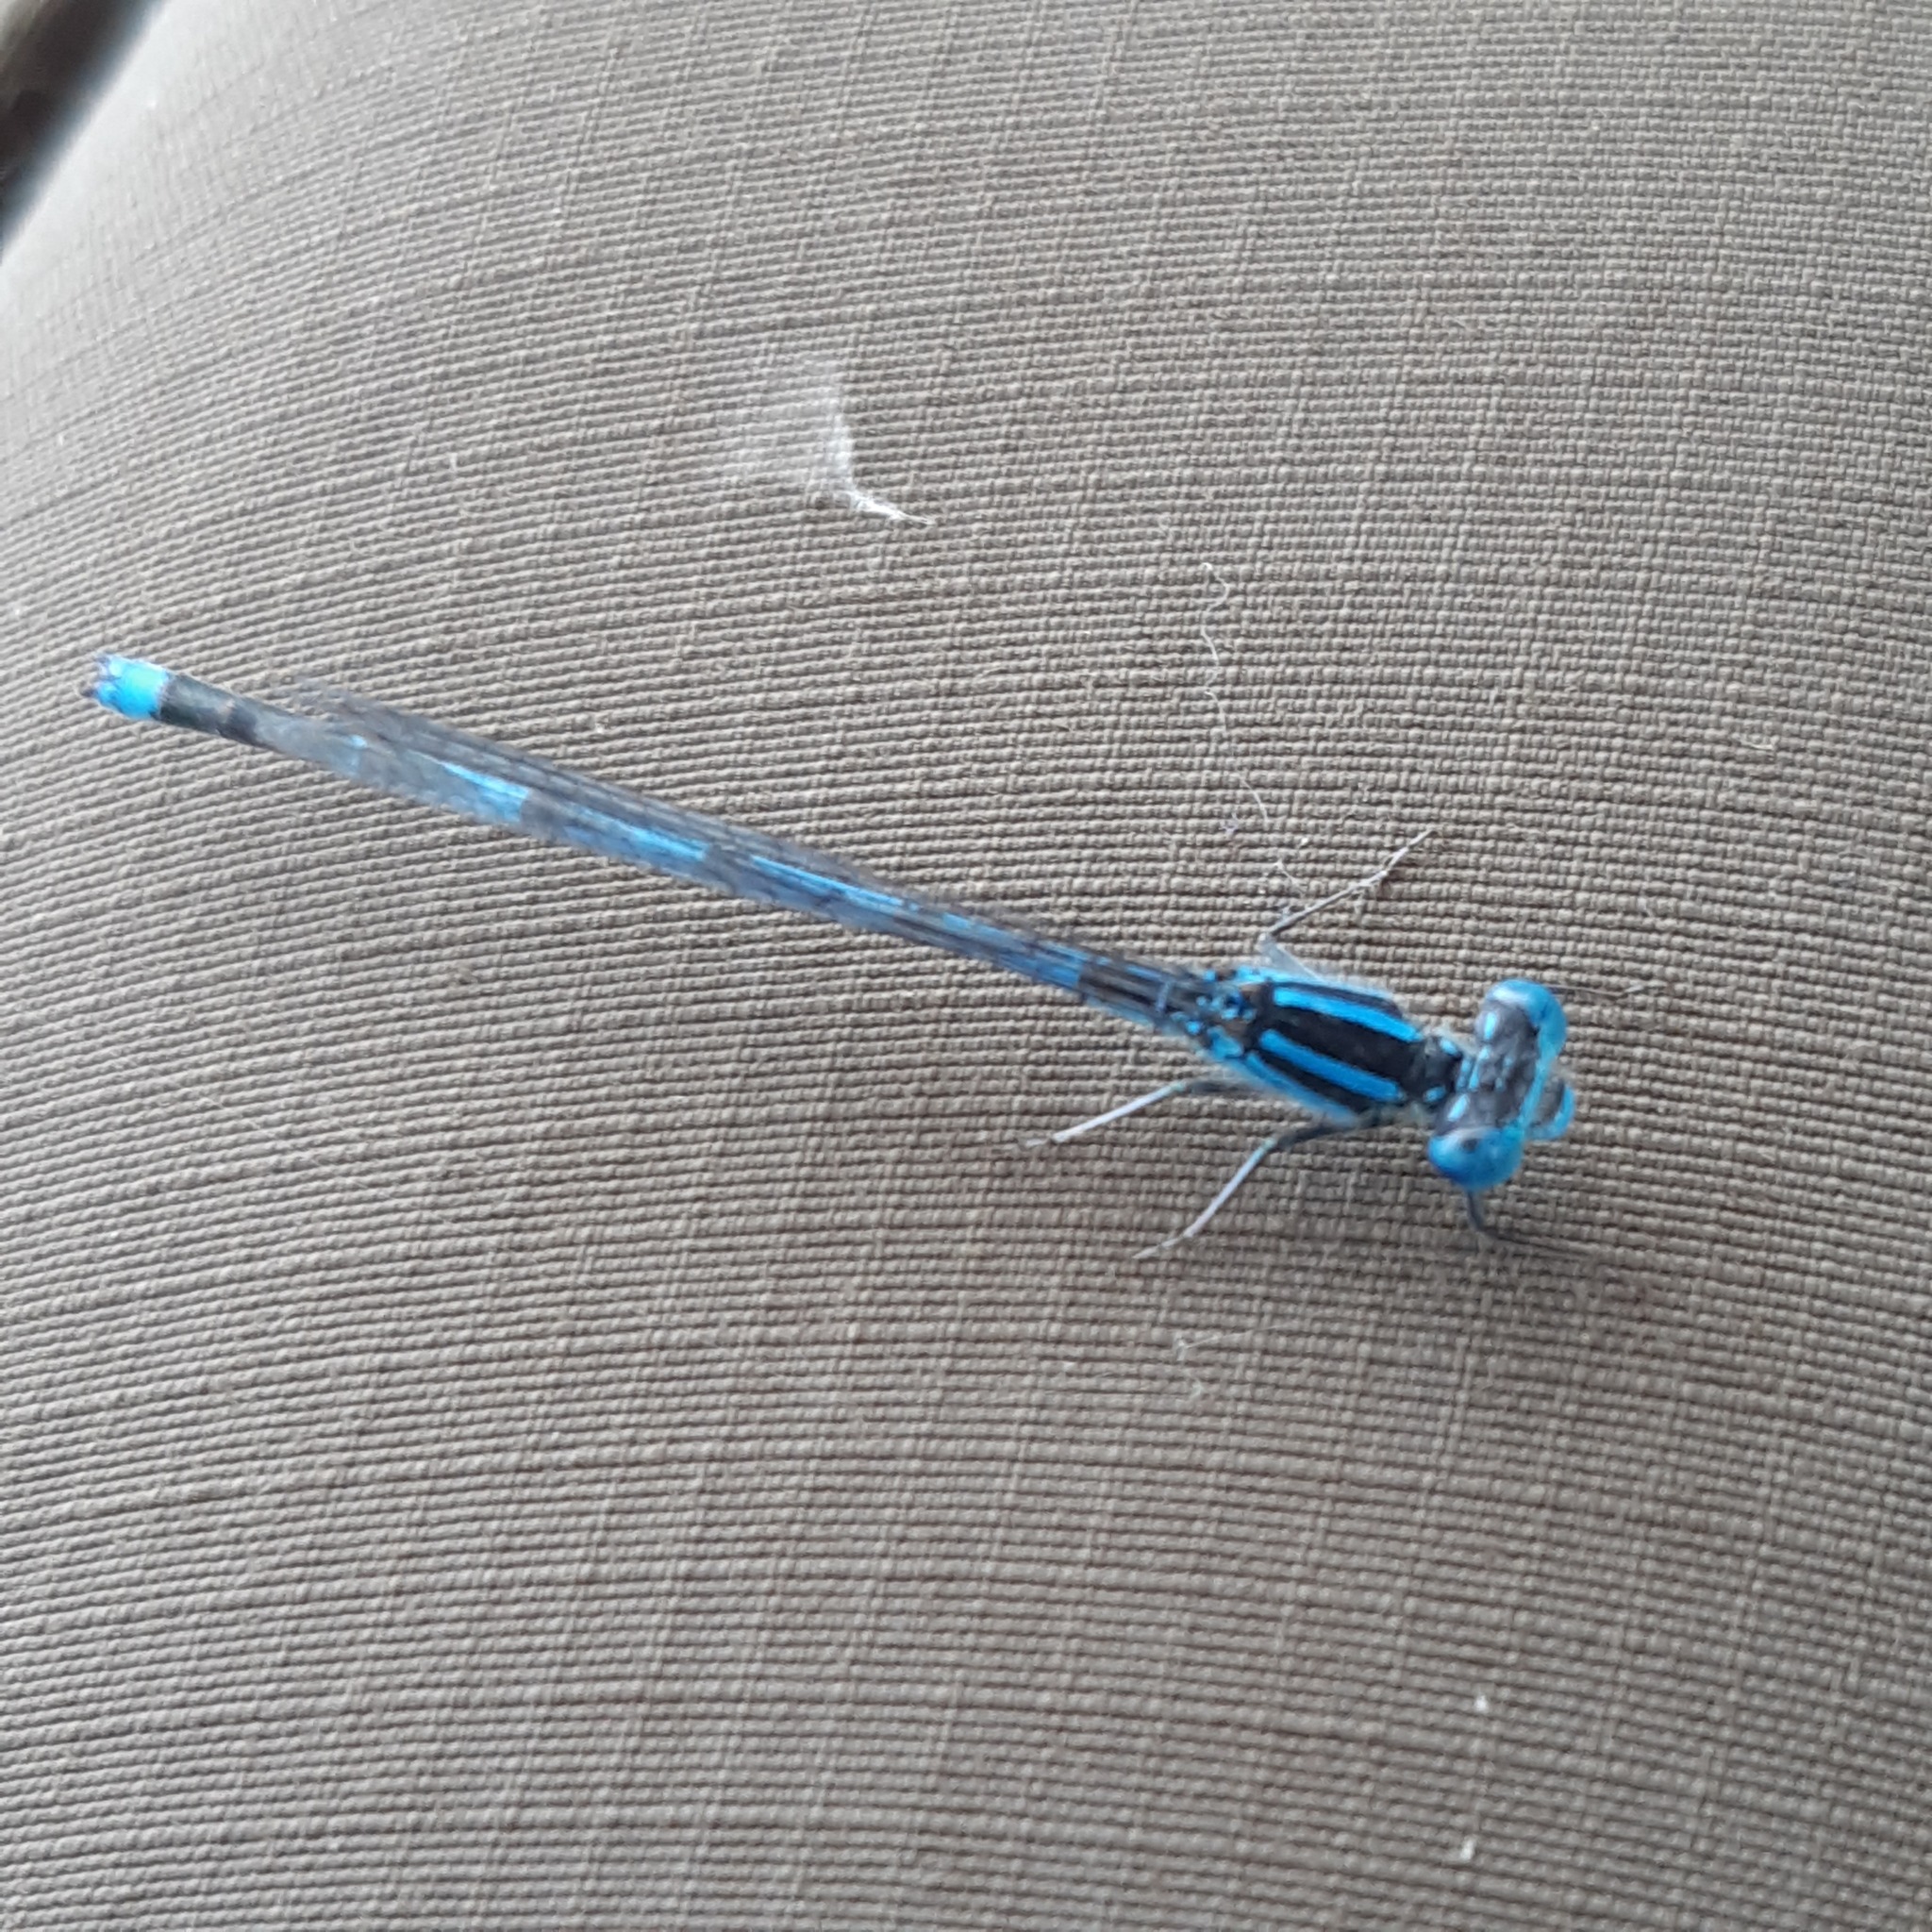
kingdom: Animalia
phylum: Arthropoda
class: Insecta
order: Odonata
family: Coenagrionidae
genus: Erythromma
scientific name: Erythromma lindenii
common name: Blue-eye
